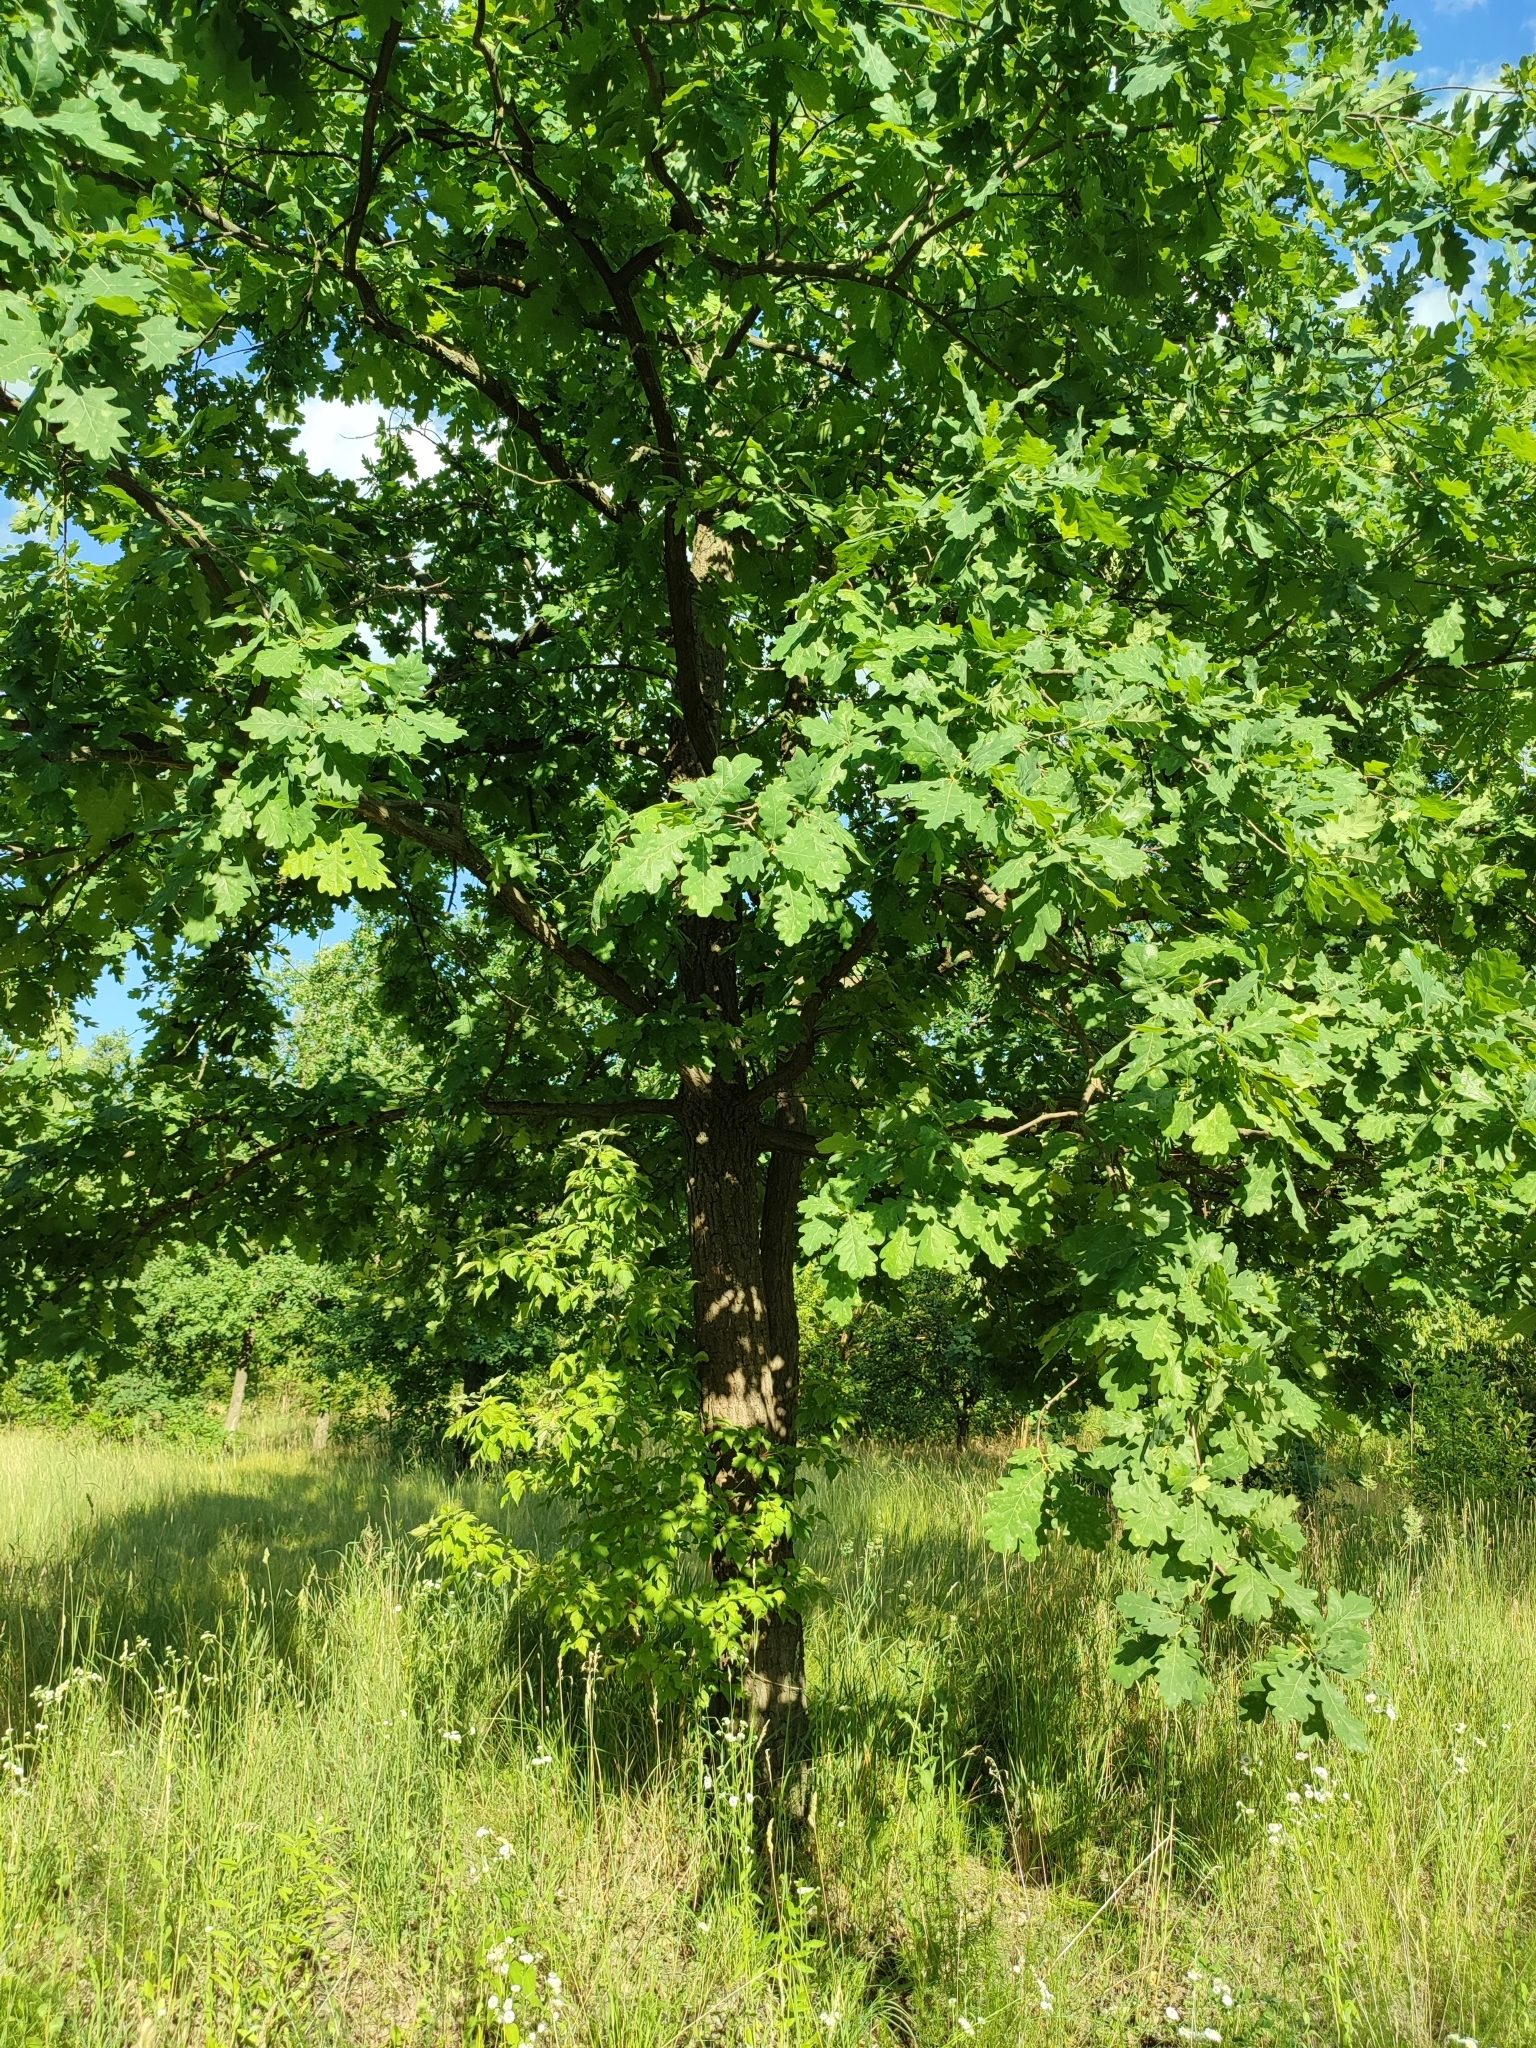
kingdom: Plantae
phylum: Tracheophyta
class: Magnoliopsida
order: Fagales
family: Fagaceae
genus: Quercus
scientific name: Quercus robur
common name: Pedunculate oak
